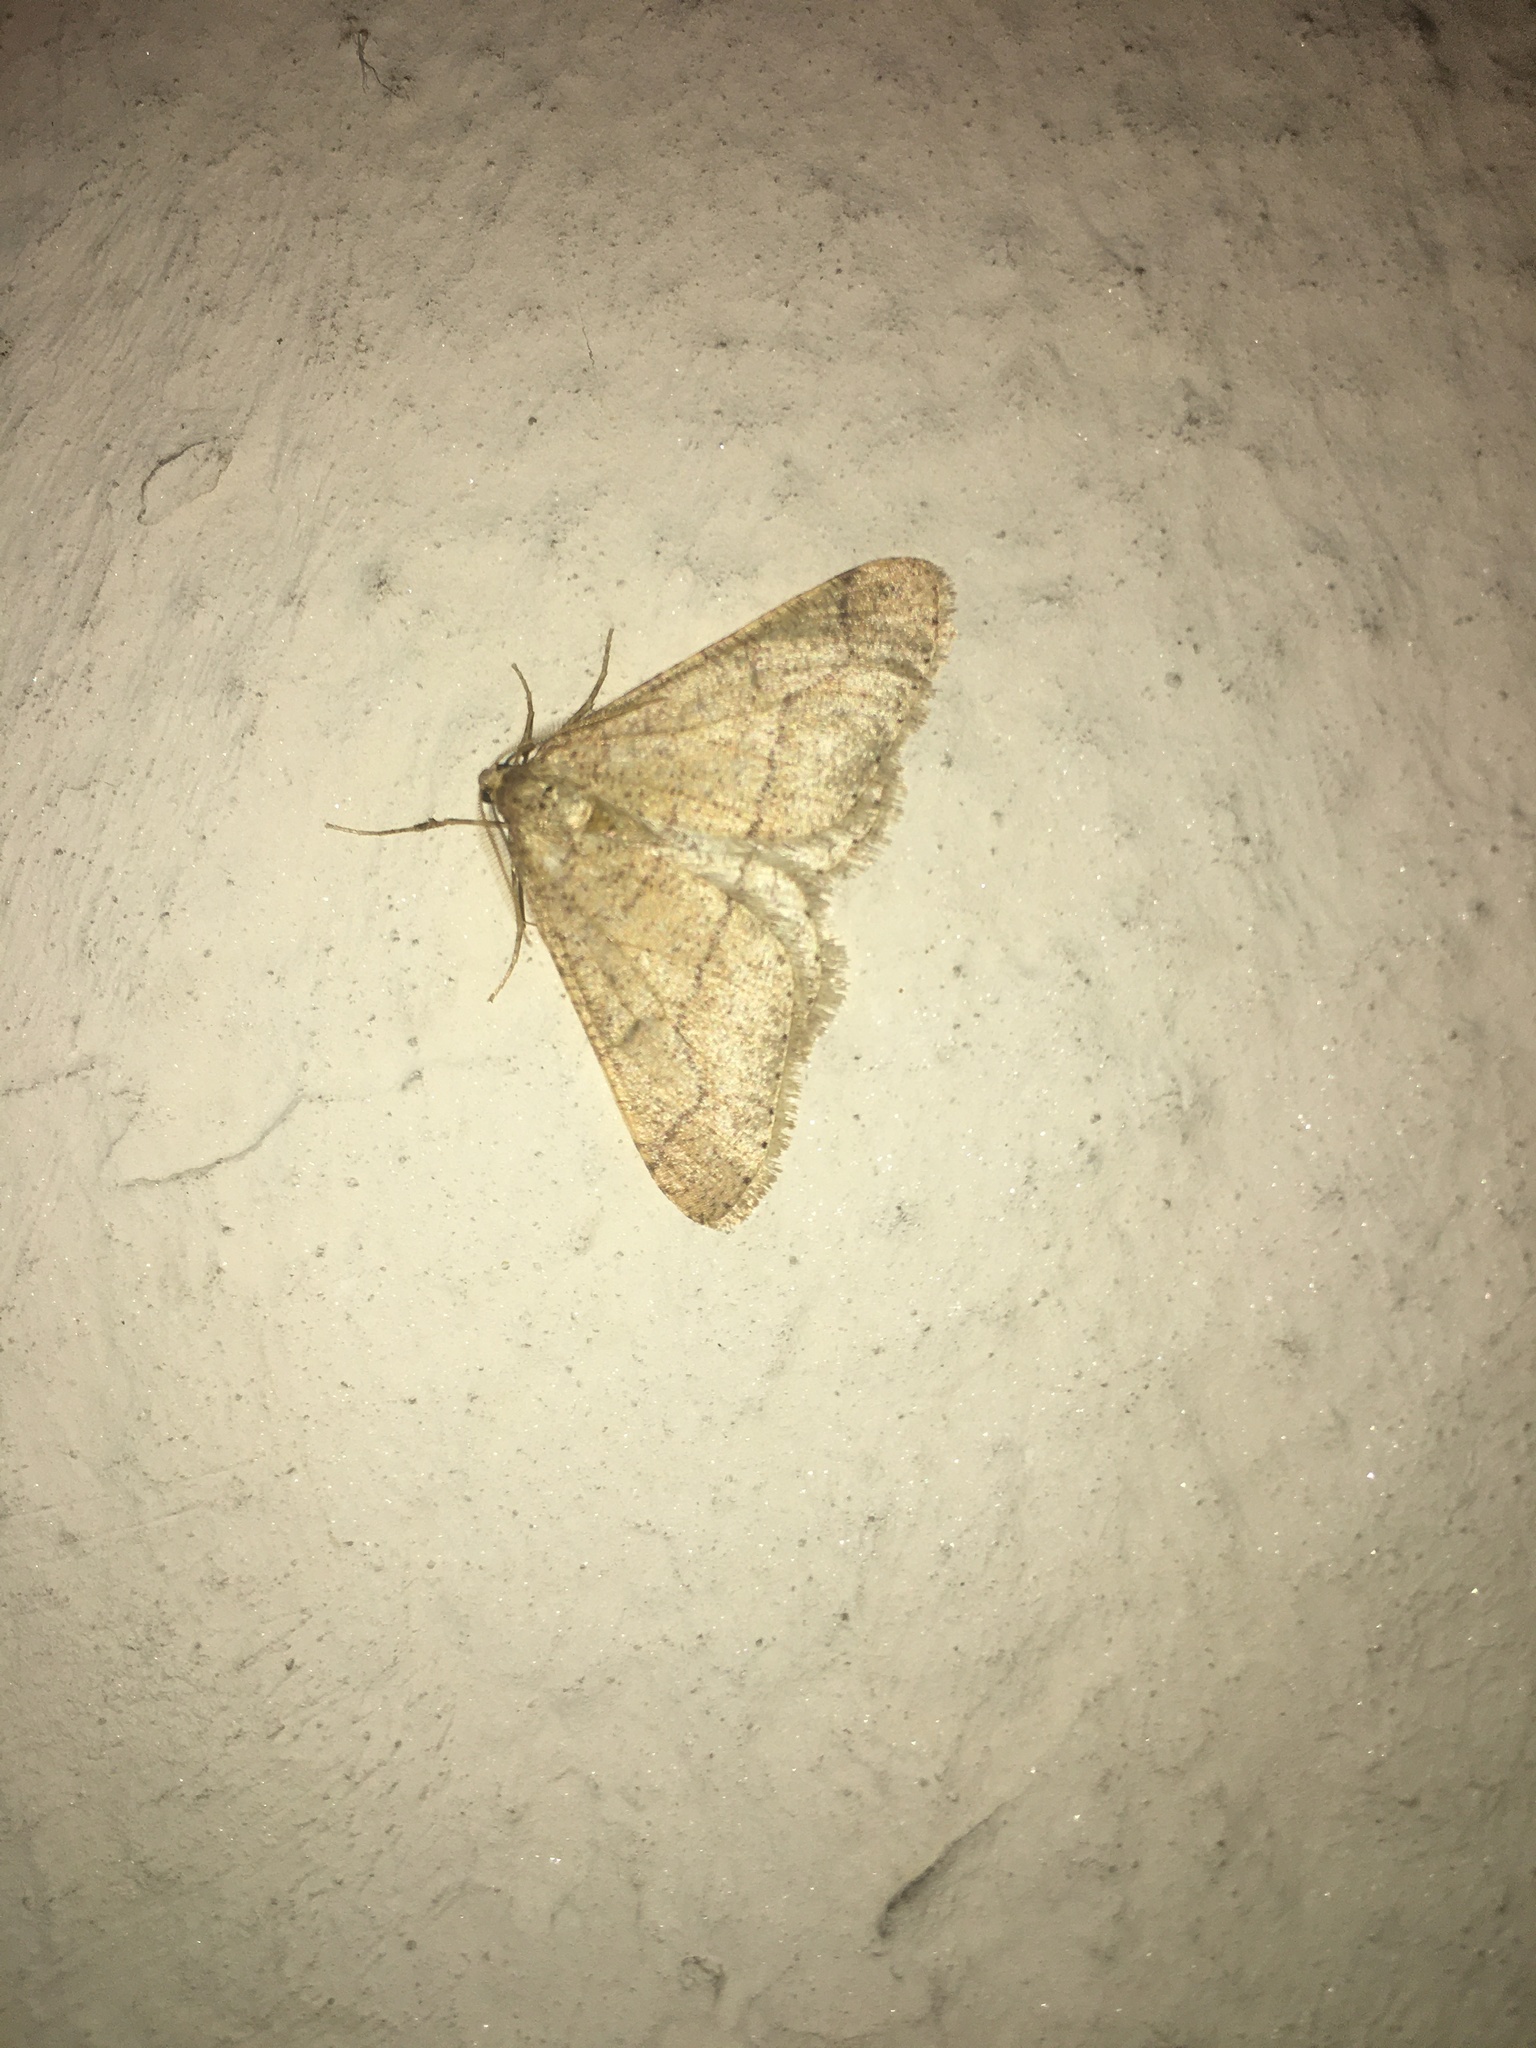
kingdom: Animalia
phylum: Arthropoda
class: Insecta
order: Lepidoptera
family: Geometridae
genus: Agriopis
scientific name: Agriopis marginaria
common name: Dotted border
